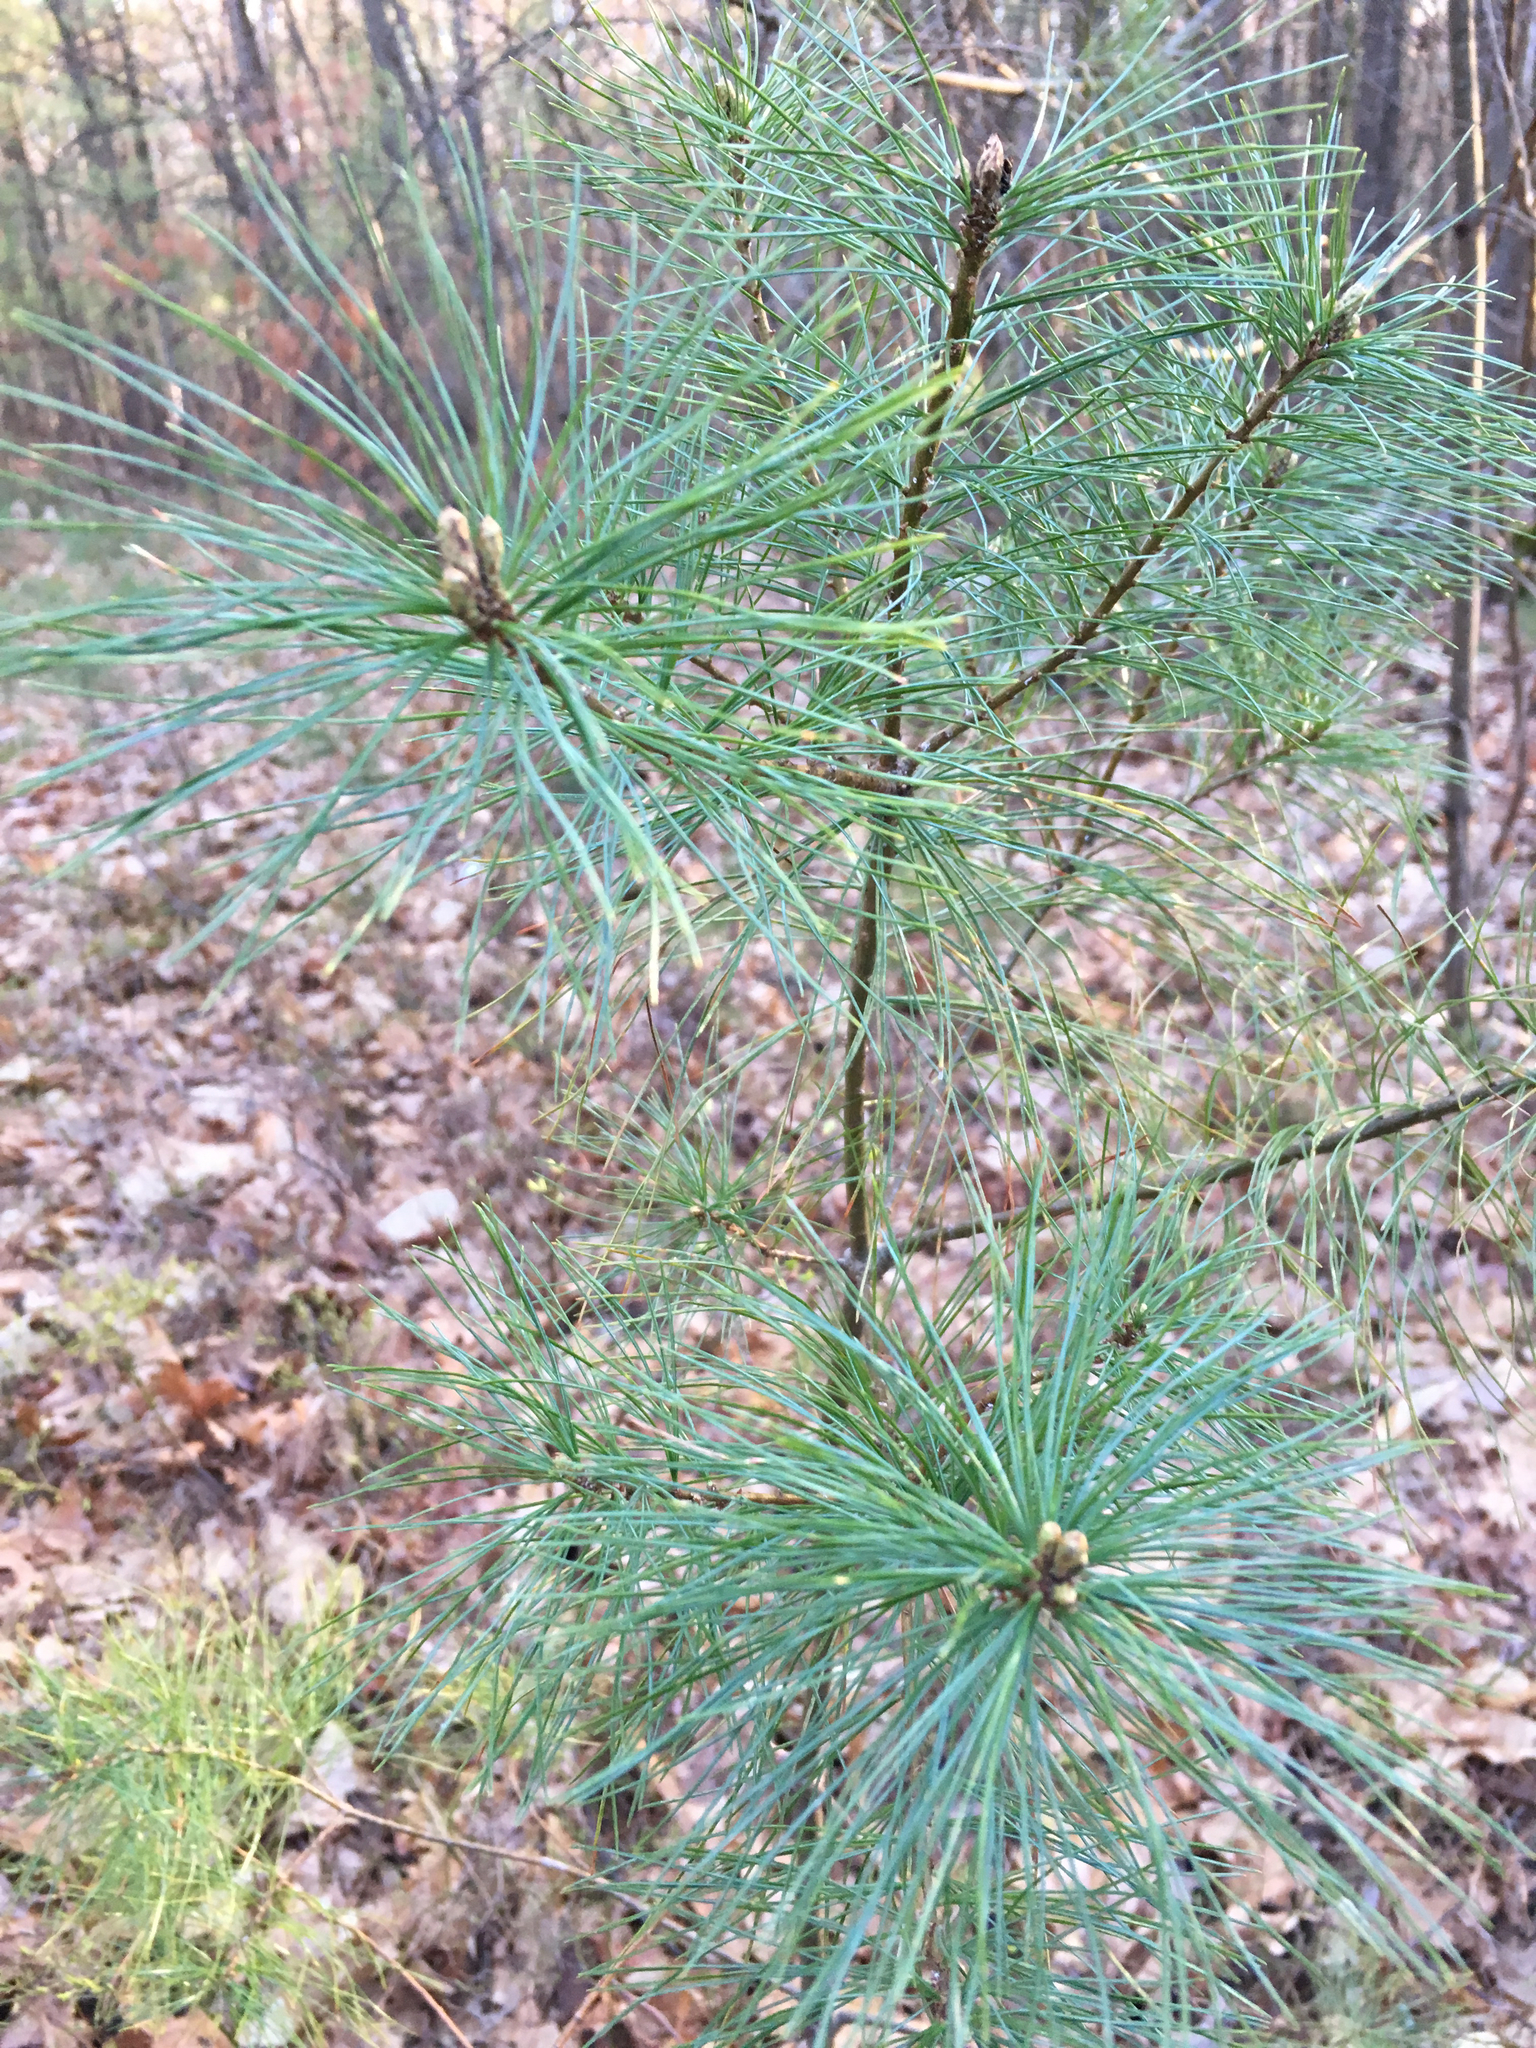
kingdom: Plantae
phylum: Tracheophyta
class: Pinopsida
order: Pinales
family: Pinaceae
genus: Pinus
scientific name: Pinus strobus
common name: Weymouth pine
